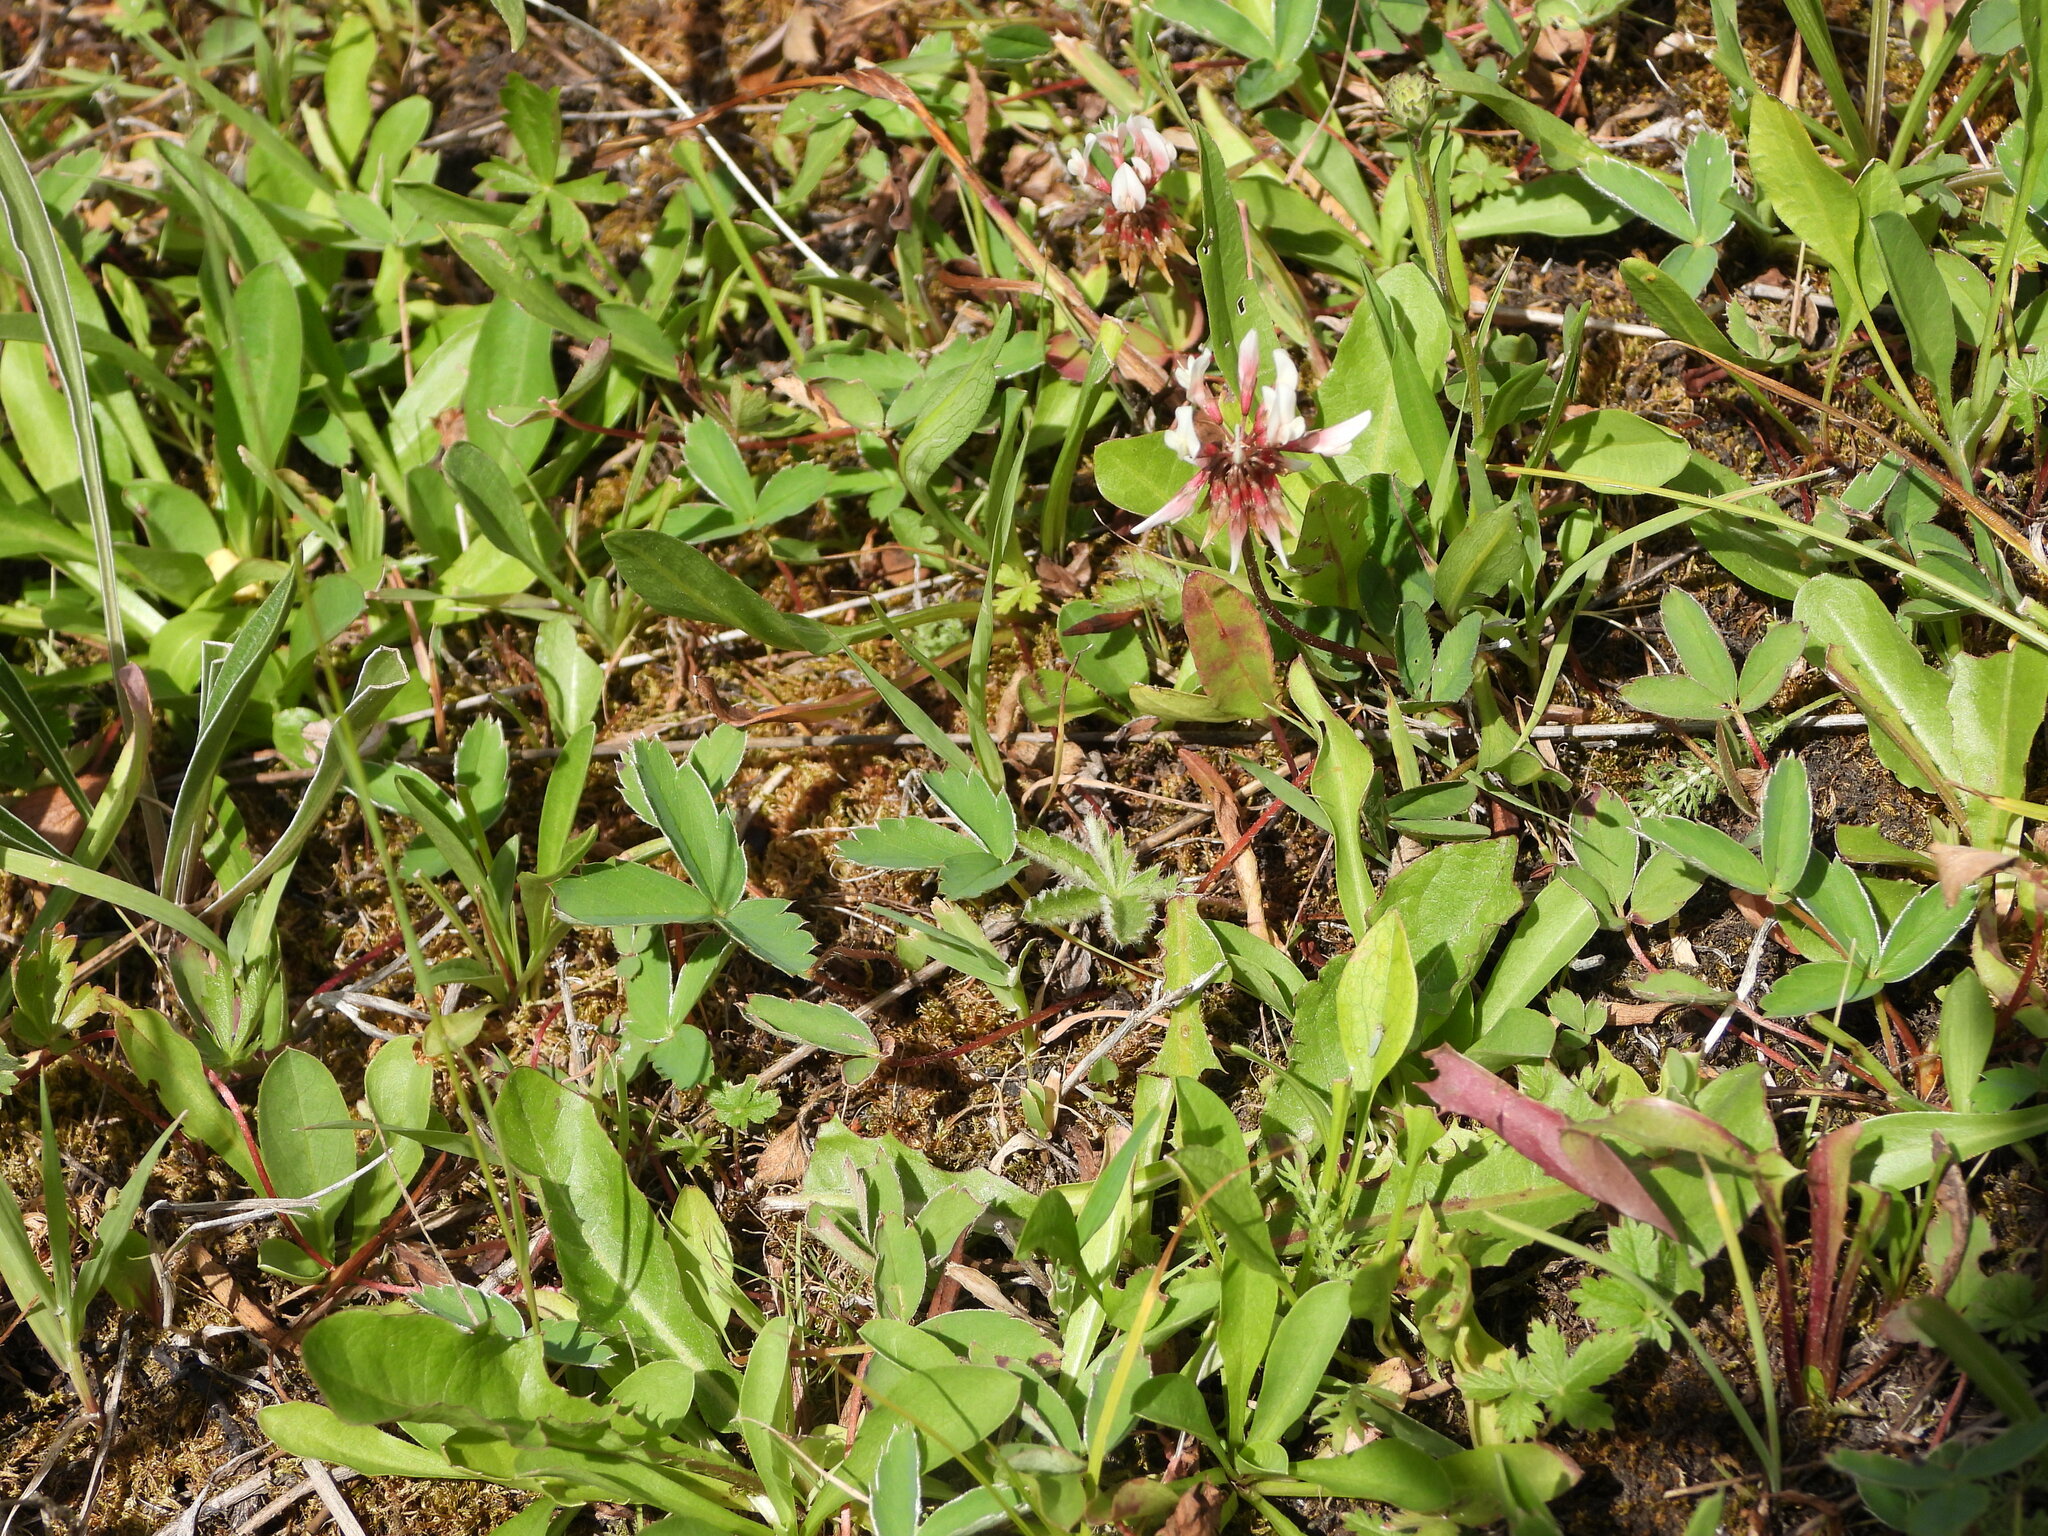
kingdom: Plantae
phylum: Tracheophyta
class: Magnoliopsida
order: Fabales
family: Fabaceae
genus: Trifolium
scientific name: Trifolium repens
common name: White clover
